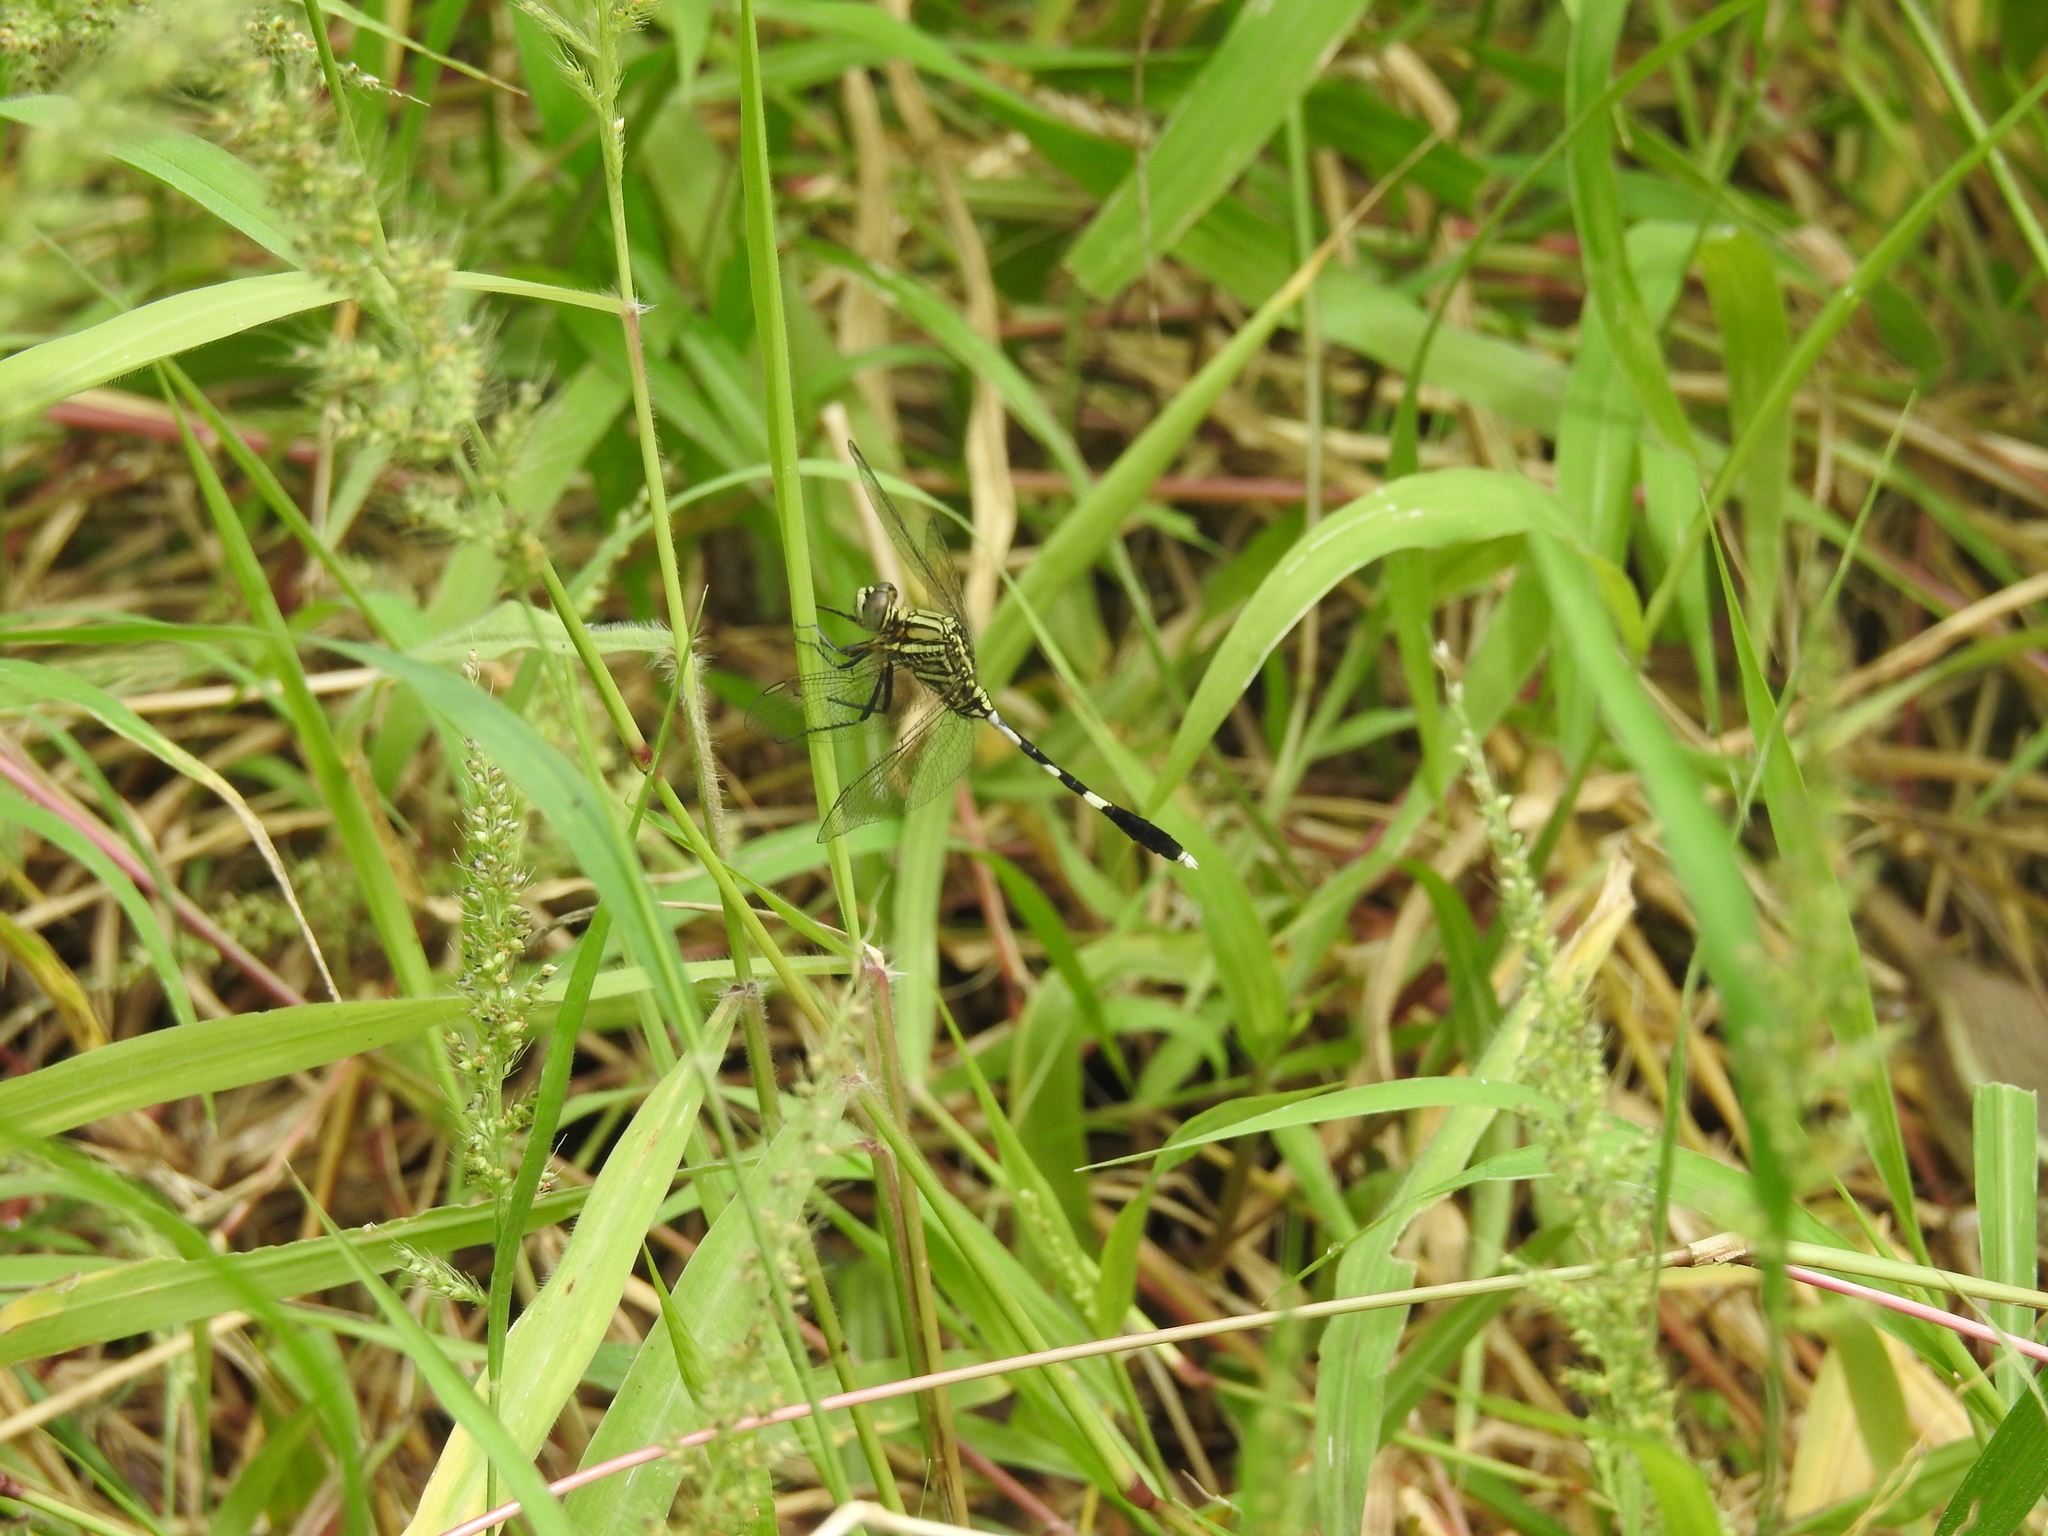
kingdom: Animalia
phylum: Arthropoda
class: Insecta
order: Odonata
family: Libellulidae
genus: Orthetrum
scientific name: Orthetrum sabina
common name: Slender skimmer
